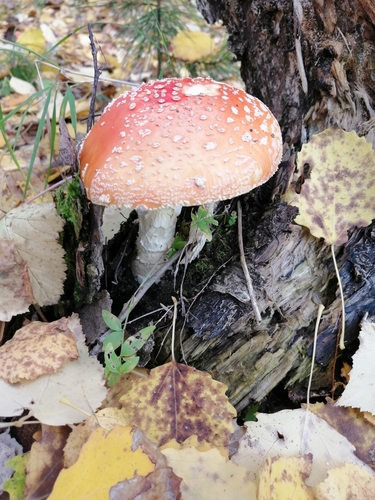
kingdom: Fungi
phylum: Basidiomycota
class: Agaricomycetes
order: Agaricales
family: Amanitaceae
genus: Amanita
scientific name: Amanita muscaria
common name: Fly agaric
